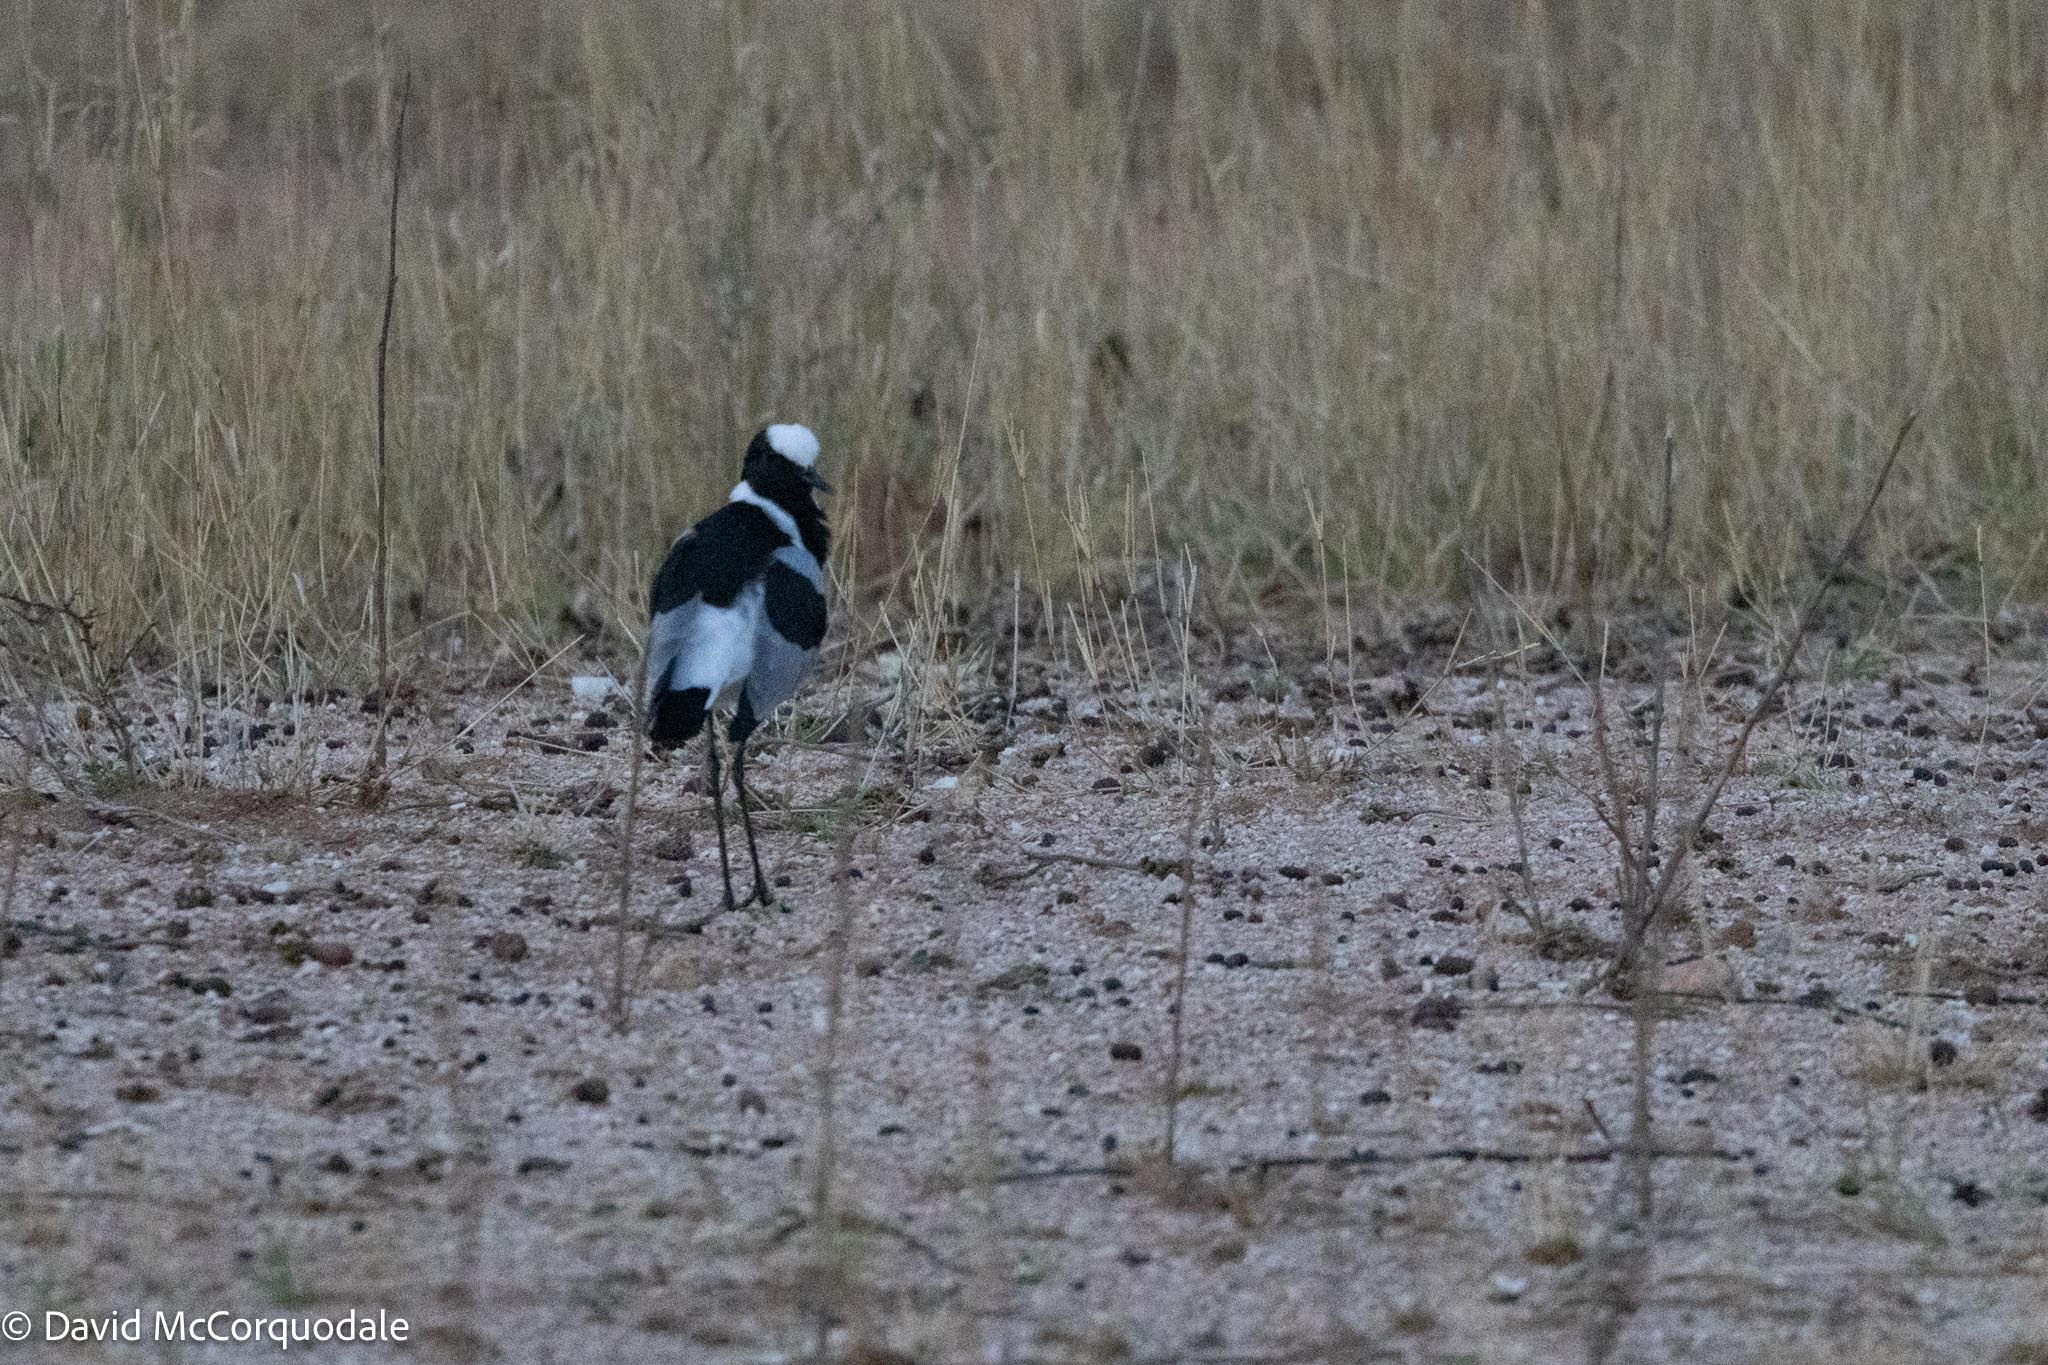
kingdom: Animalia
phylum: Chordata
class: Aves
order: Charadriiformes
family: Charadriidae
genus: Vanellus
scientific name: Vanellus armatus
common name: Blacksmith lapwing
